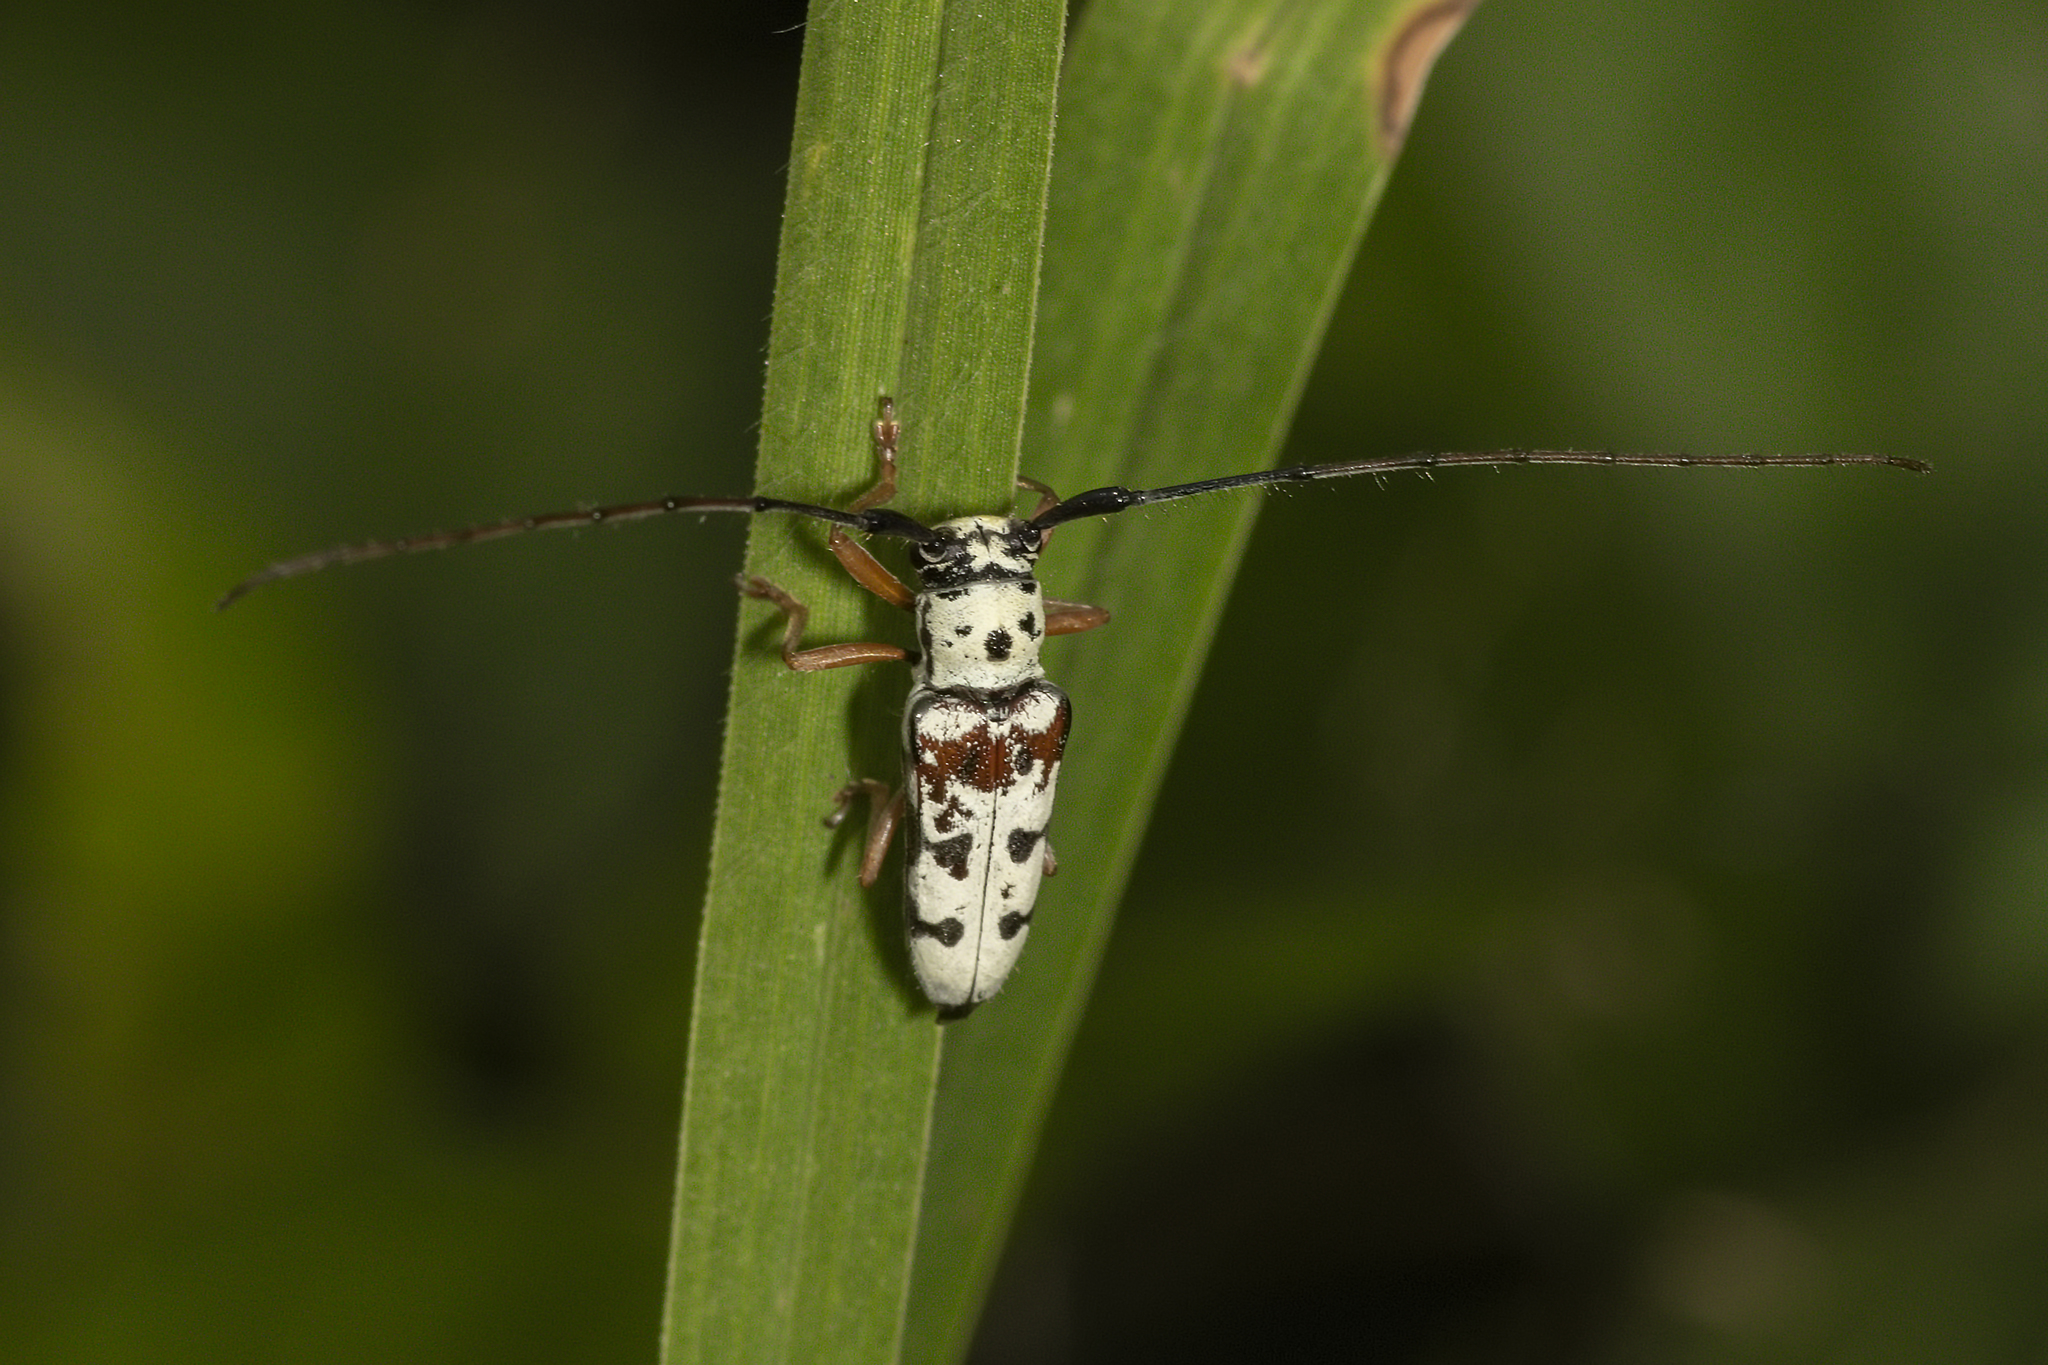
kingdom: Animalia
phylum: Arthropoda
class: Insecta
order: Coleoptera
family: Cerambycidae
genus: Zeale
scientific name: Zeale nigromaculata
